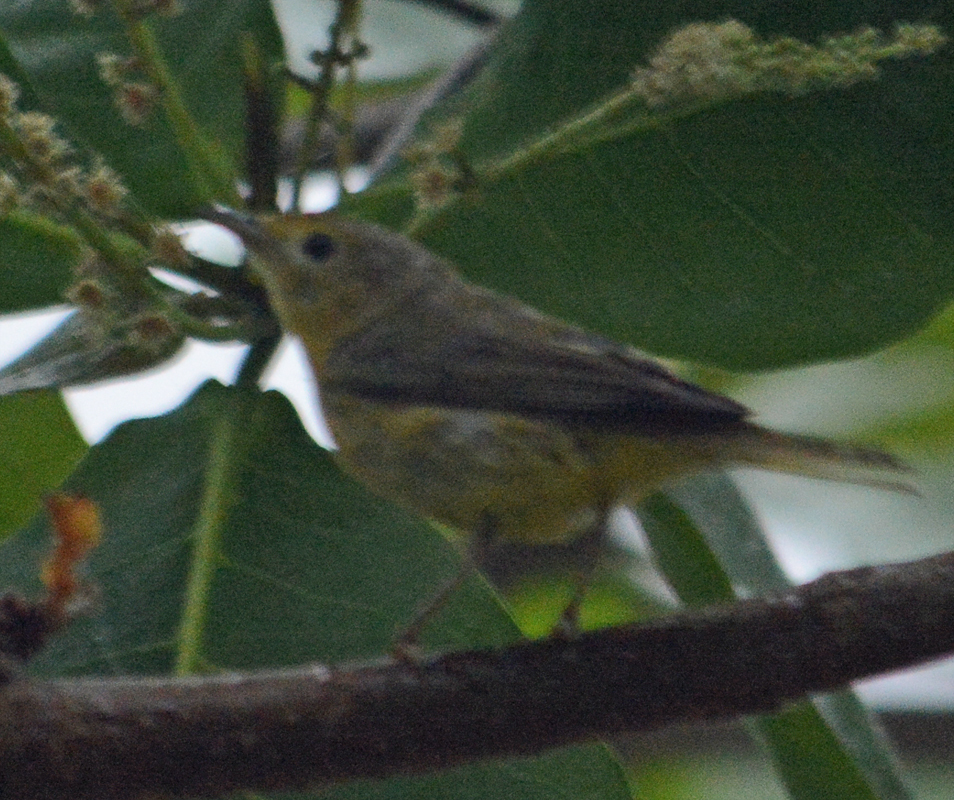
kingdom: Animalia
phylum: Chordata
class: Aves
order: Passeriformes
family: Parulidae
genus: Setophaga
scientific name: Setophaga petechia
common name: Yellow warbler
